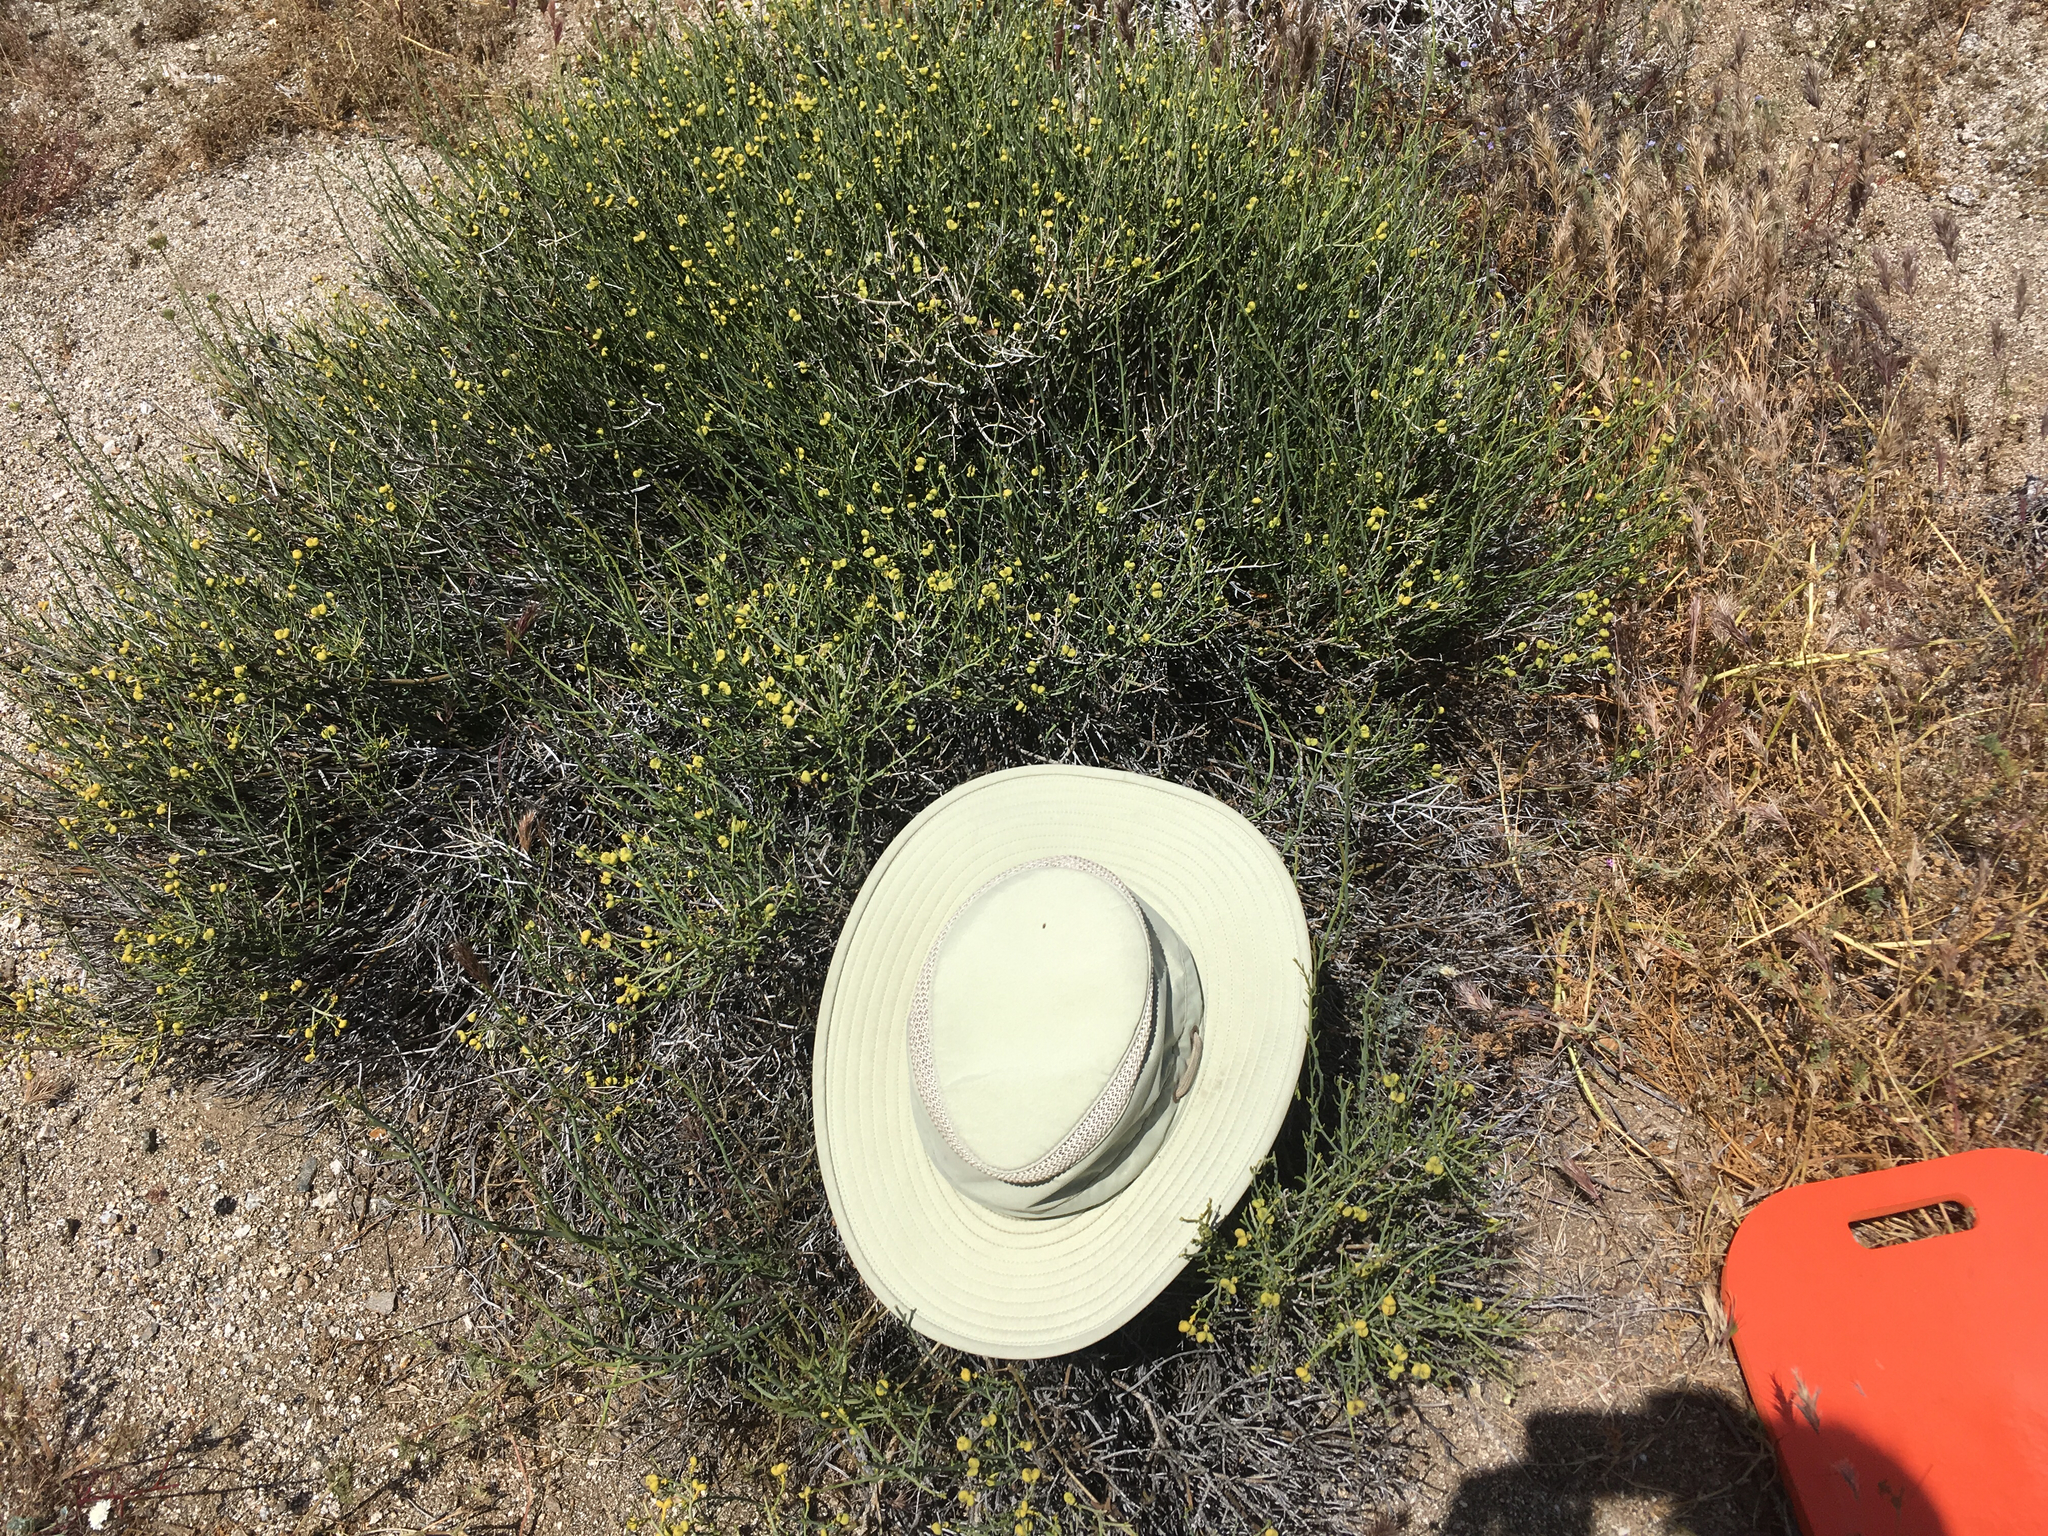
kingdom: Plantae
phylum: Tracheophyta
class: Magnoliopsida
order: Sapindales
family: Rutaceae
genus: Thamnosma
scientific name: Thamnosma montana
